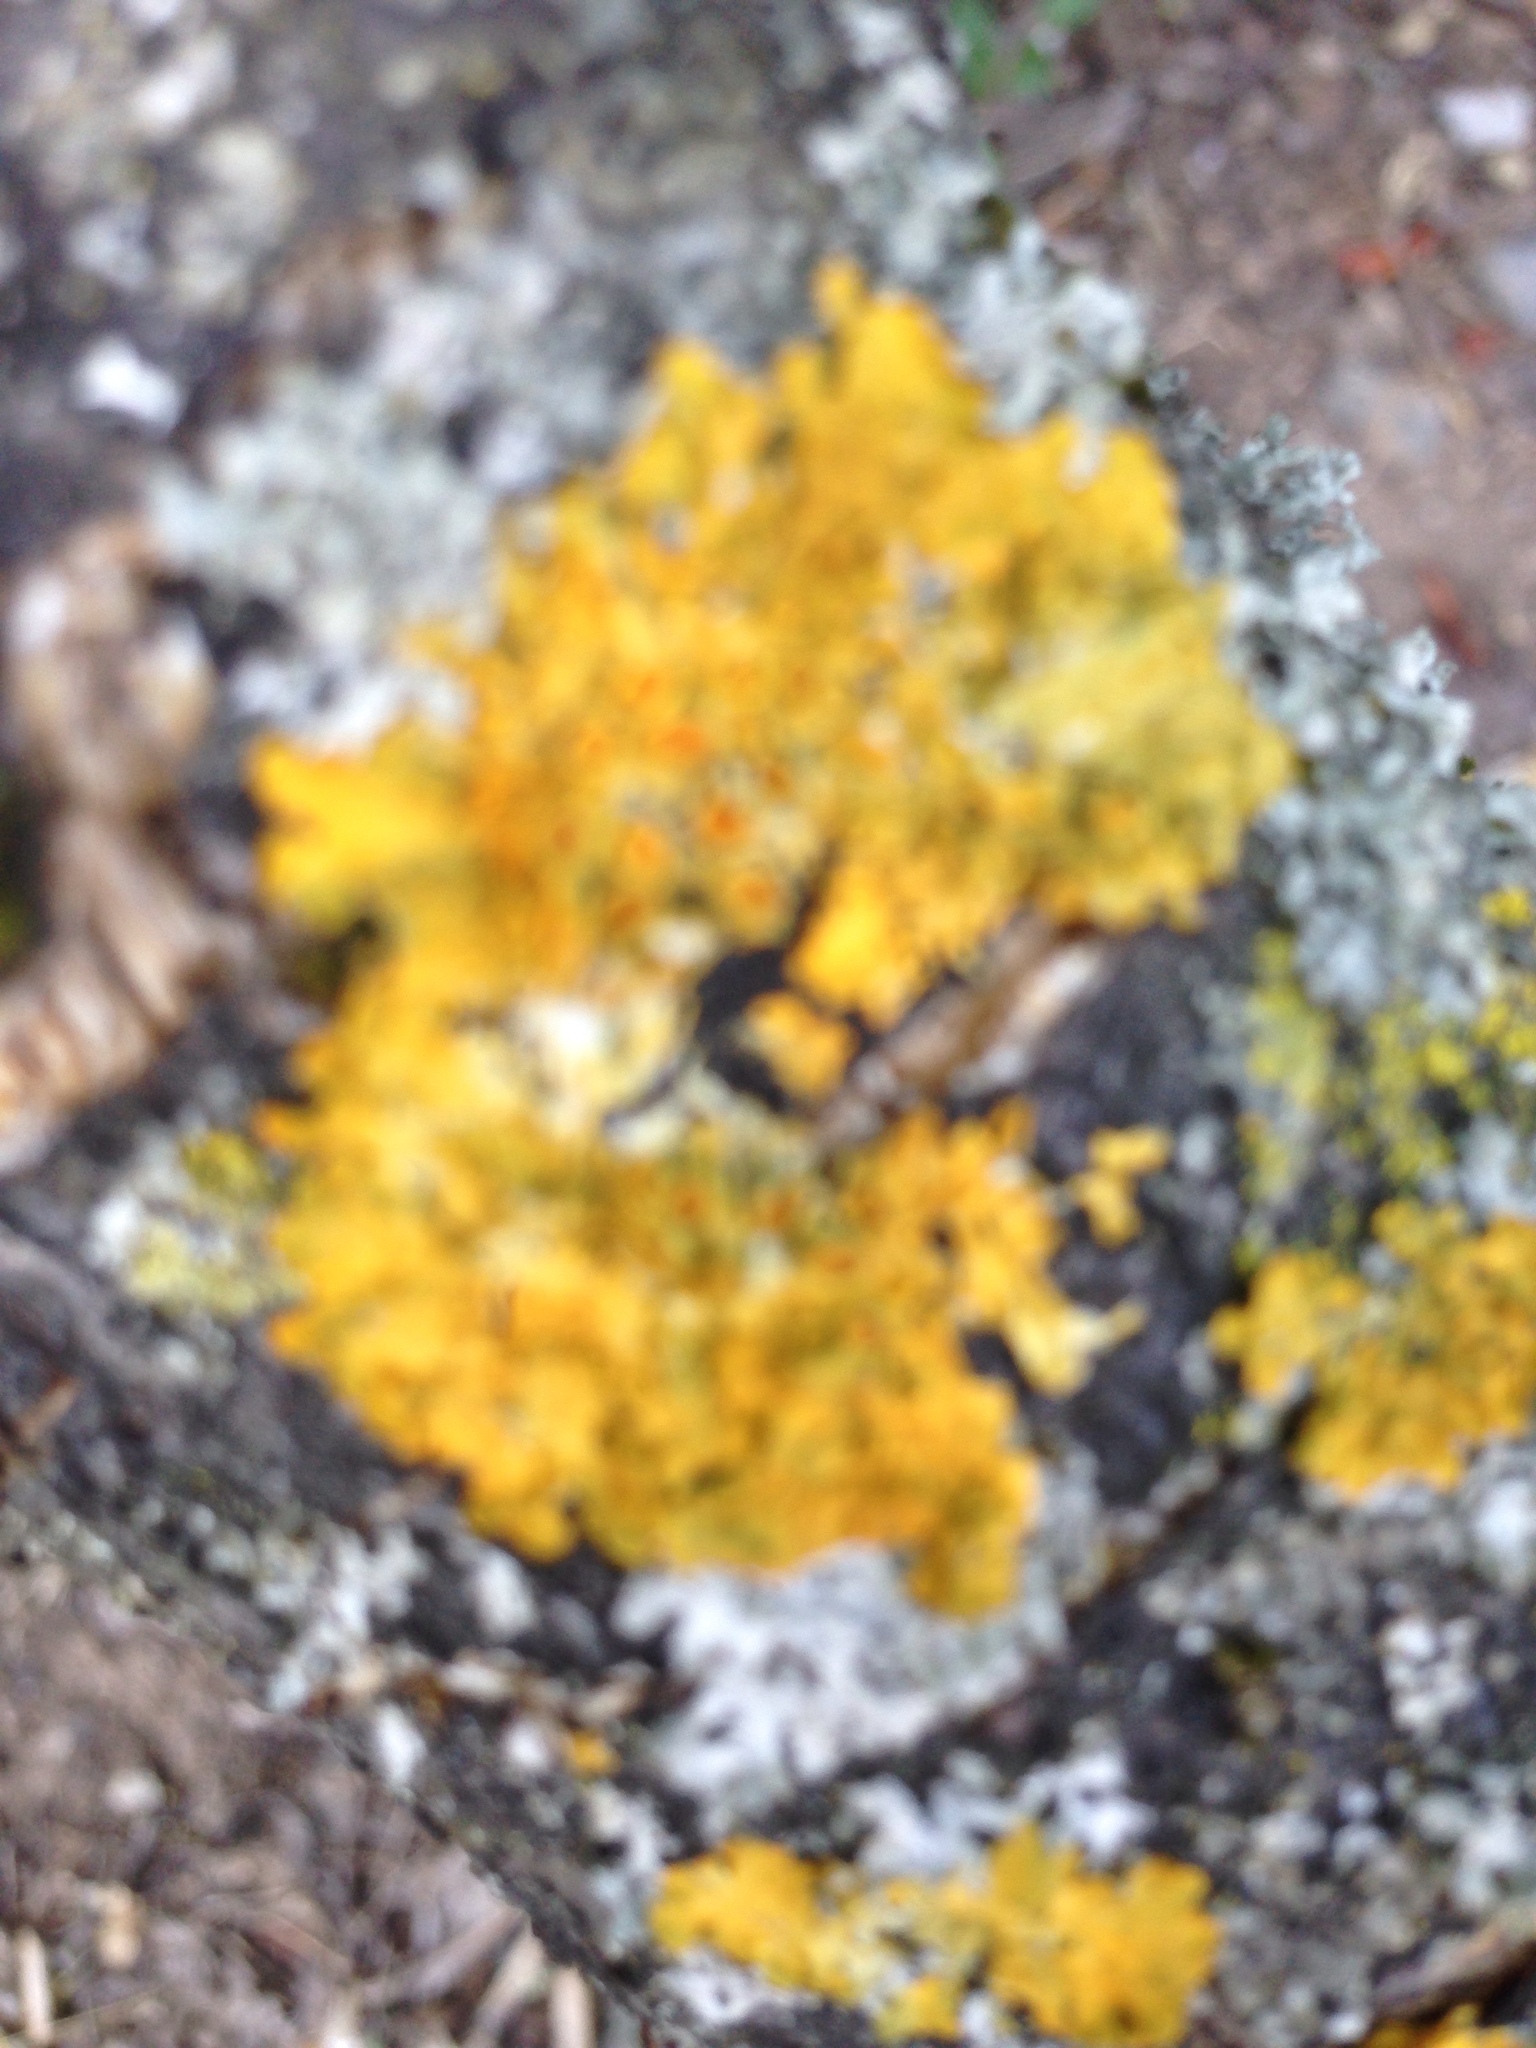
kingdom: Fungi
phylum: Ascomycota
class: Lecanoromycetes
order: Teloschistales
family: Teloschistaceae
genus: Xanthoria
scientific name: Xanthoria parietina
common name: Common orange lichen
